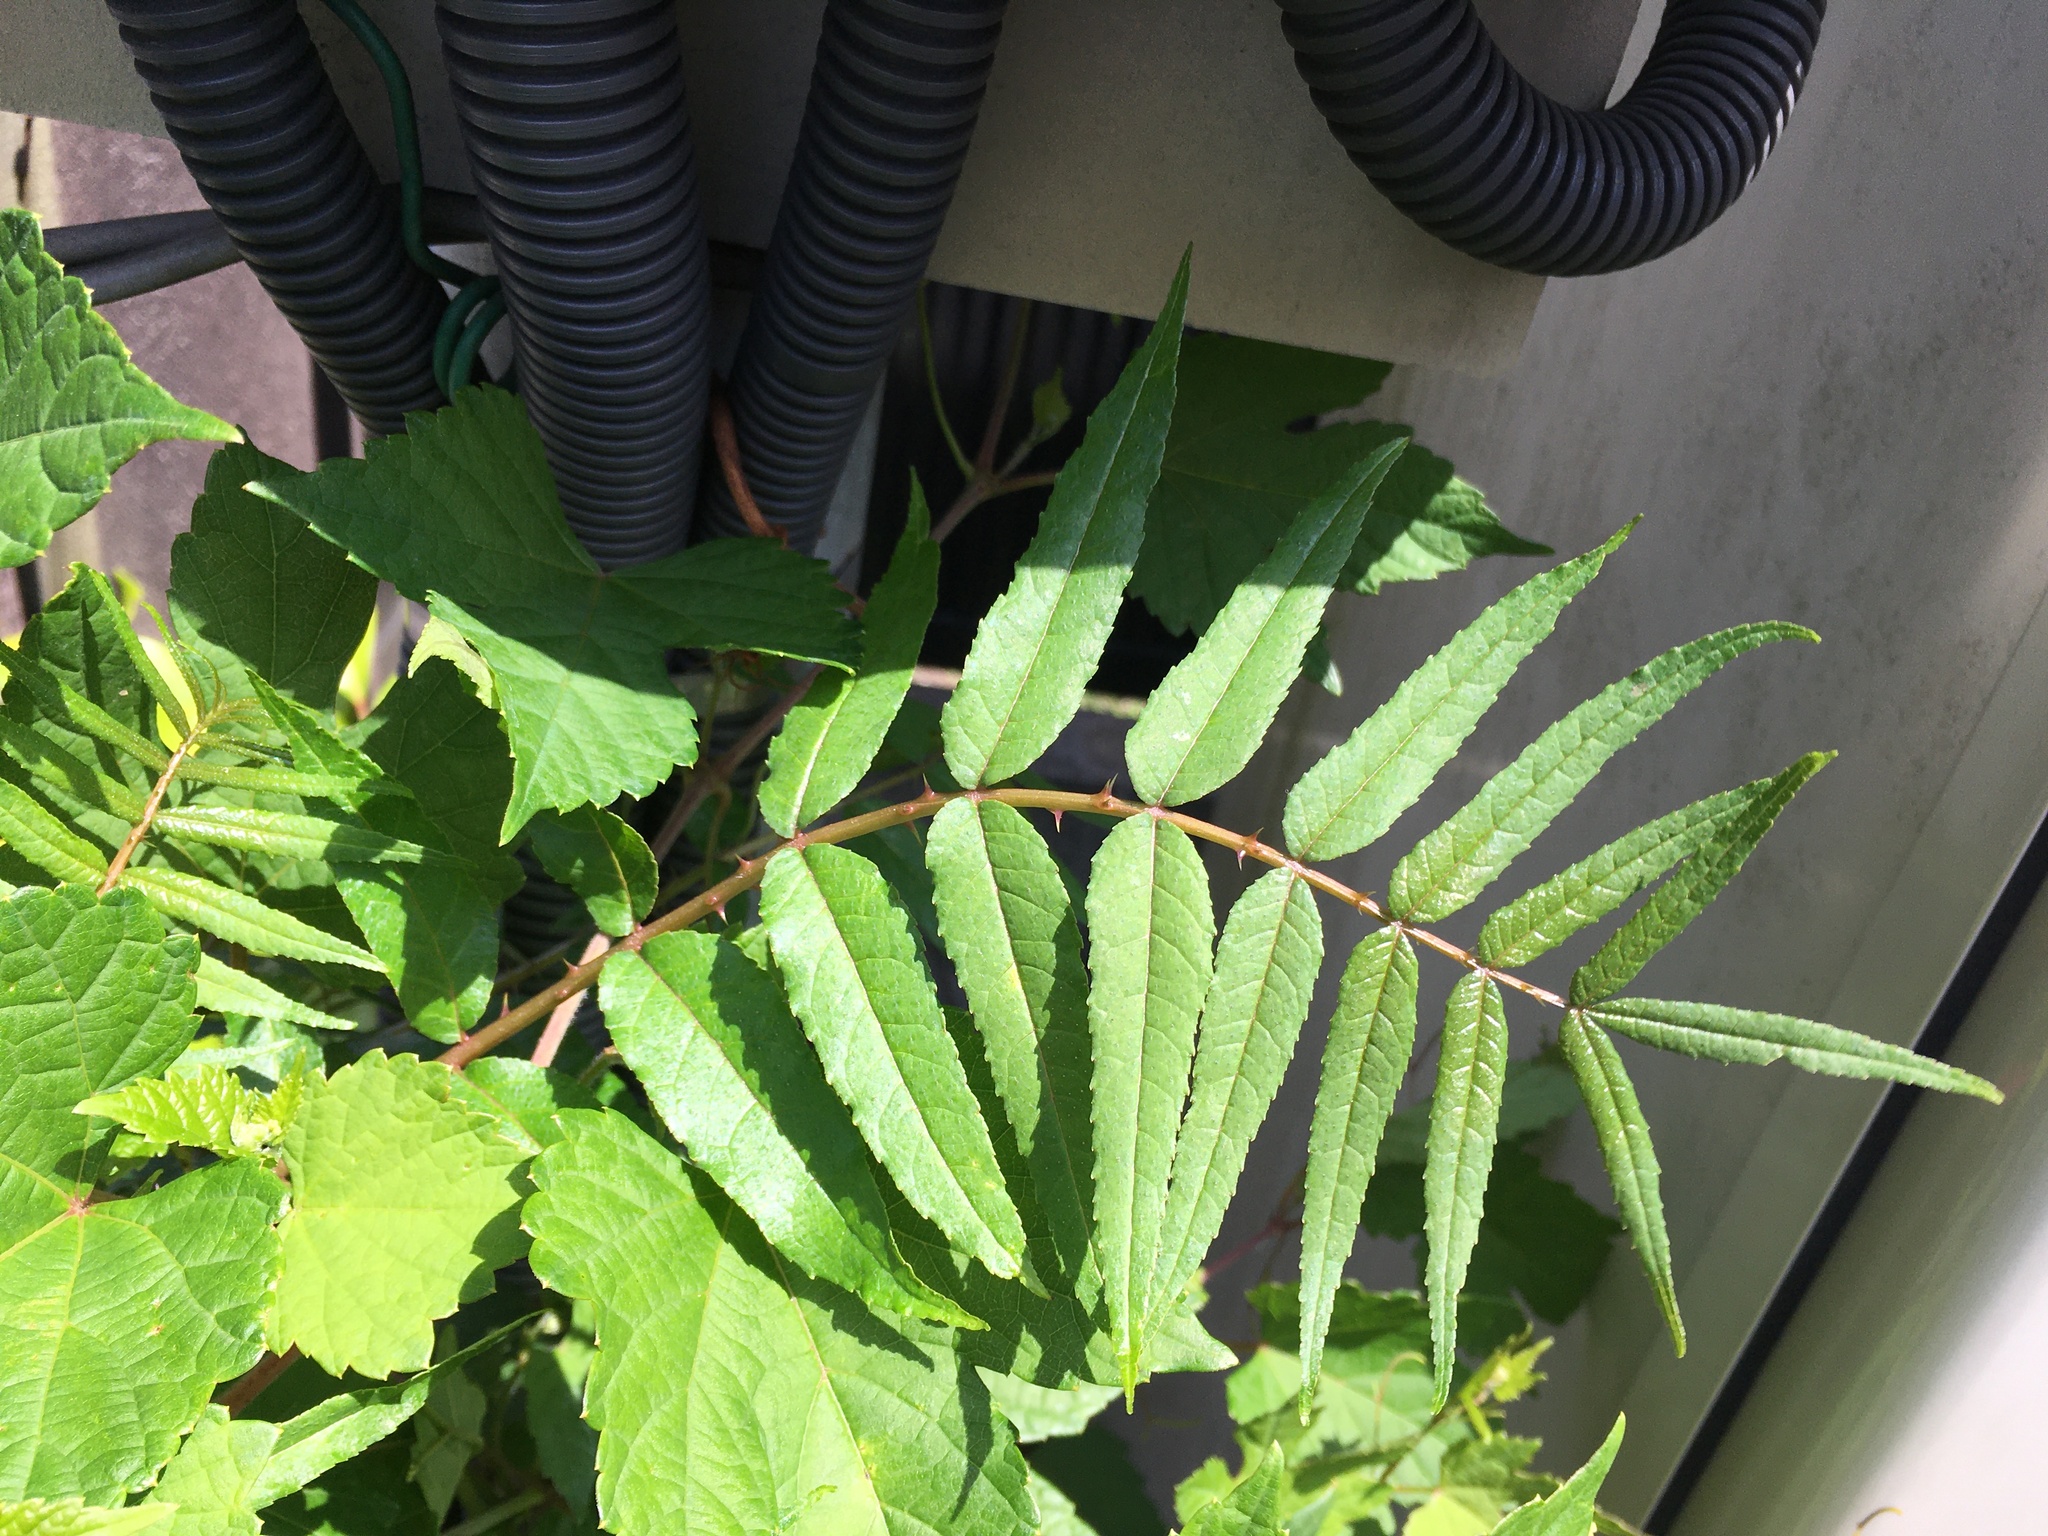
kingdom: Plantae
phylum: Tracheophyta
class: Magnoliopsida
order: Sapindales
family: Rutaceae
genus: Zanthoxylum
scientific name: Zanthoxylum ailanthoides
